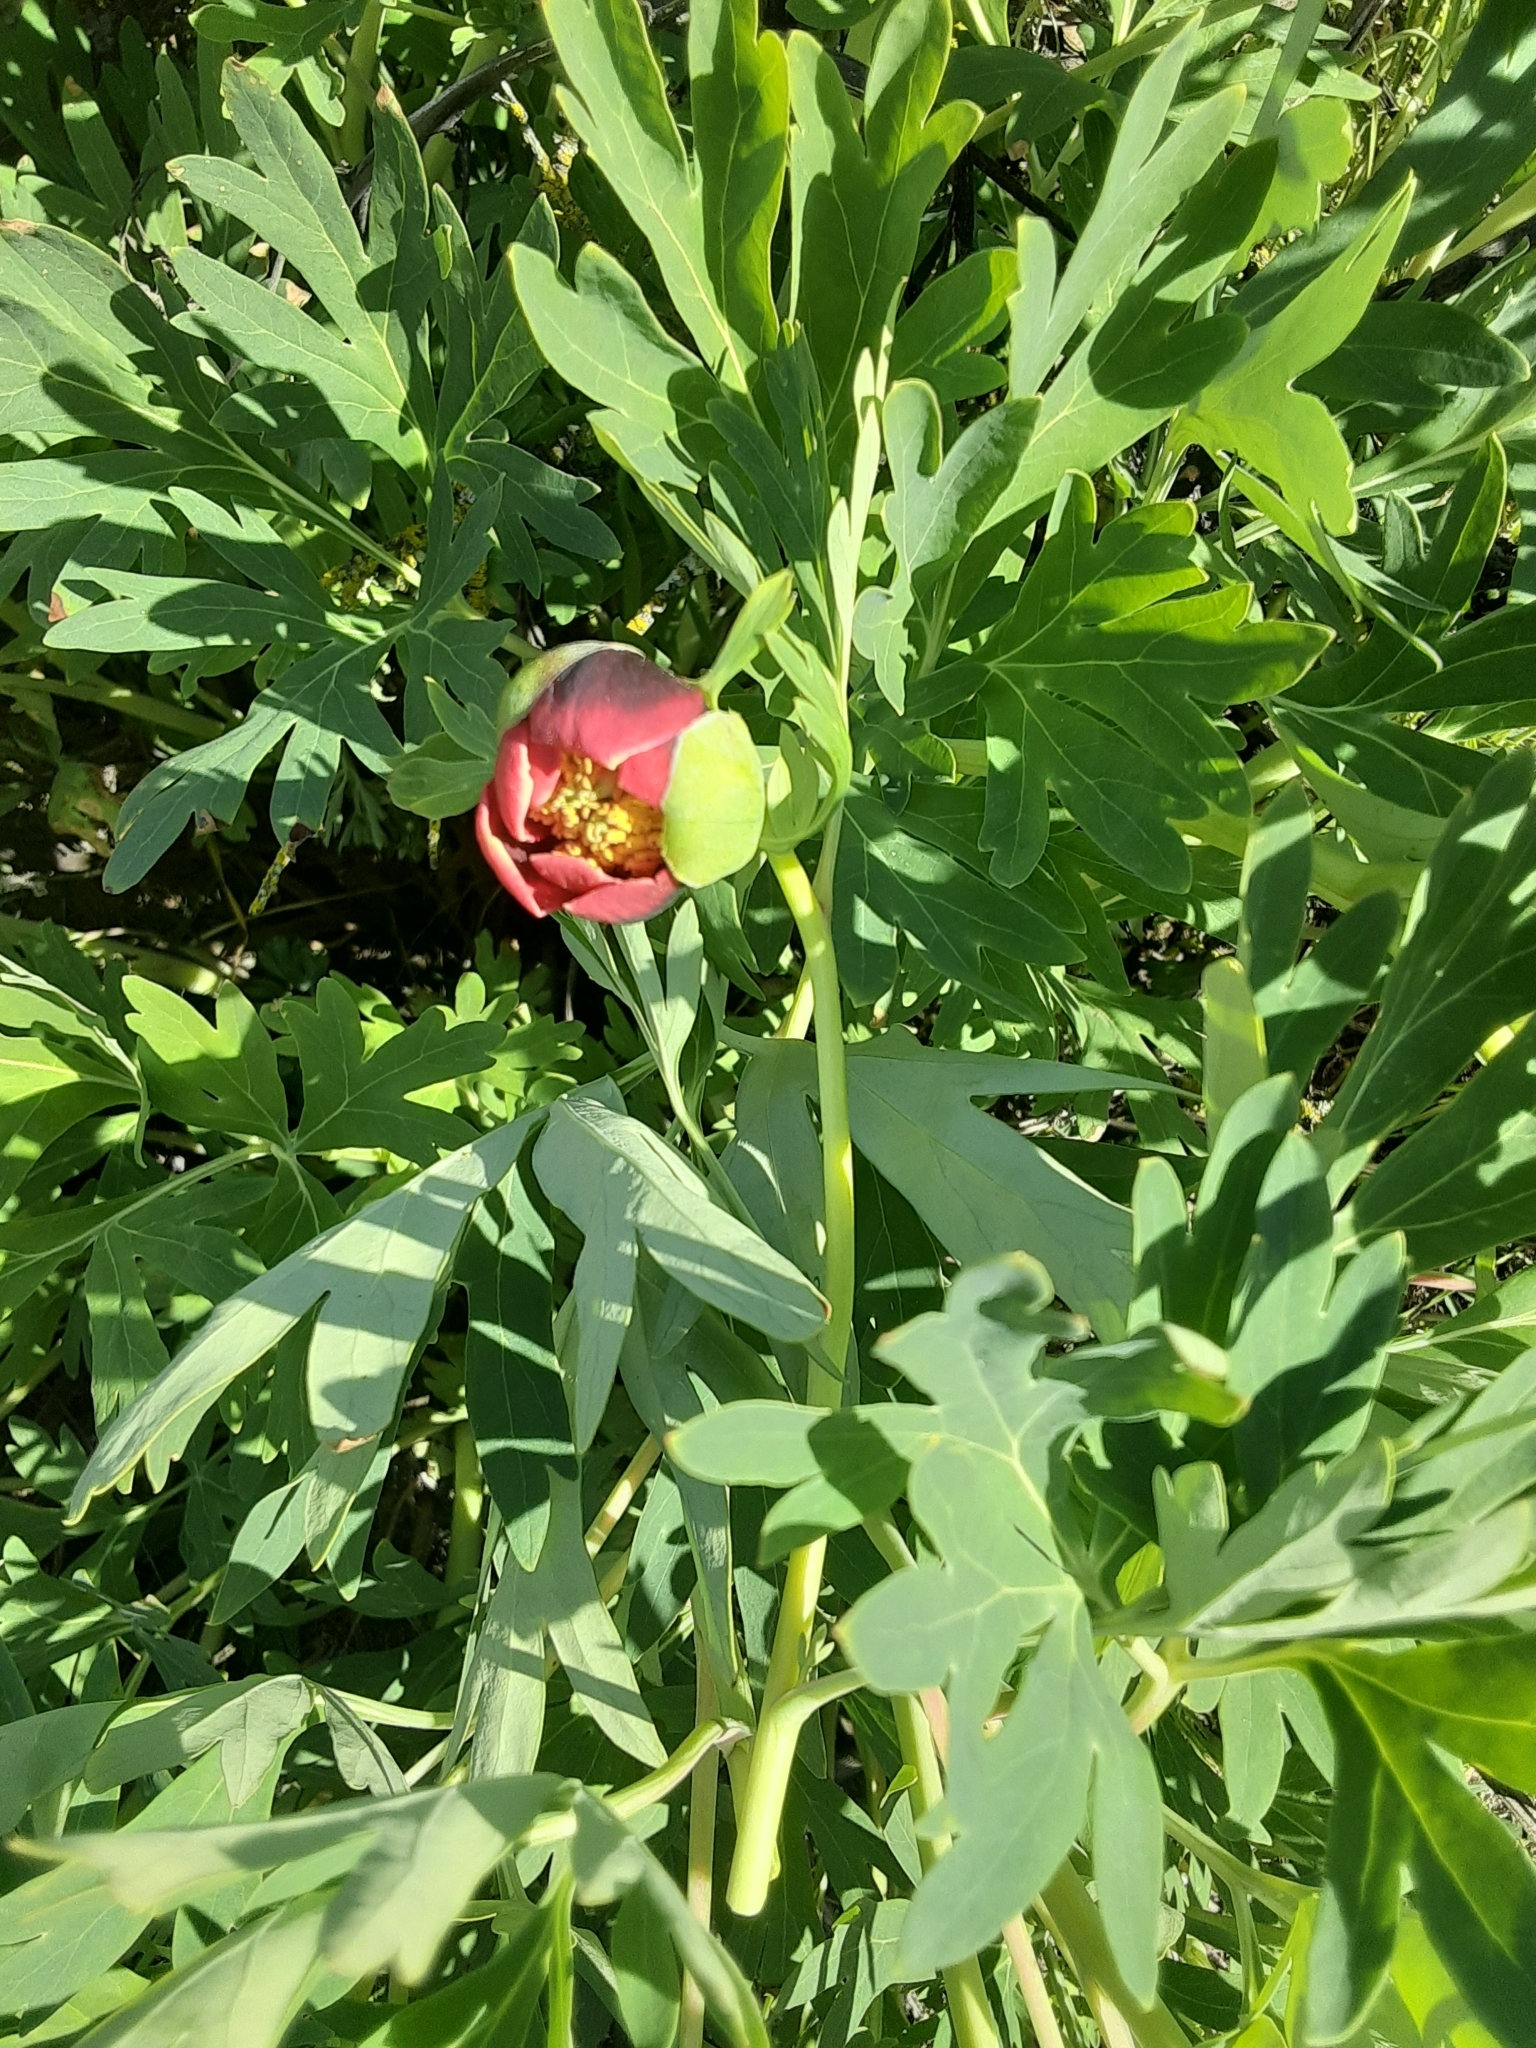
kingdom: Plantae
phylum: Tracheophyta
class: Magnoliopsida
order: Saxifragales
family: Paeoniaceae
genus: Paeonia
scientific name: Paeonia californica
